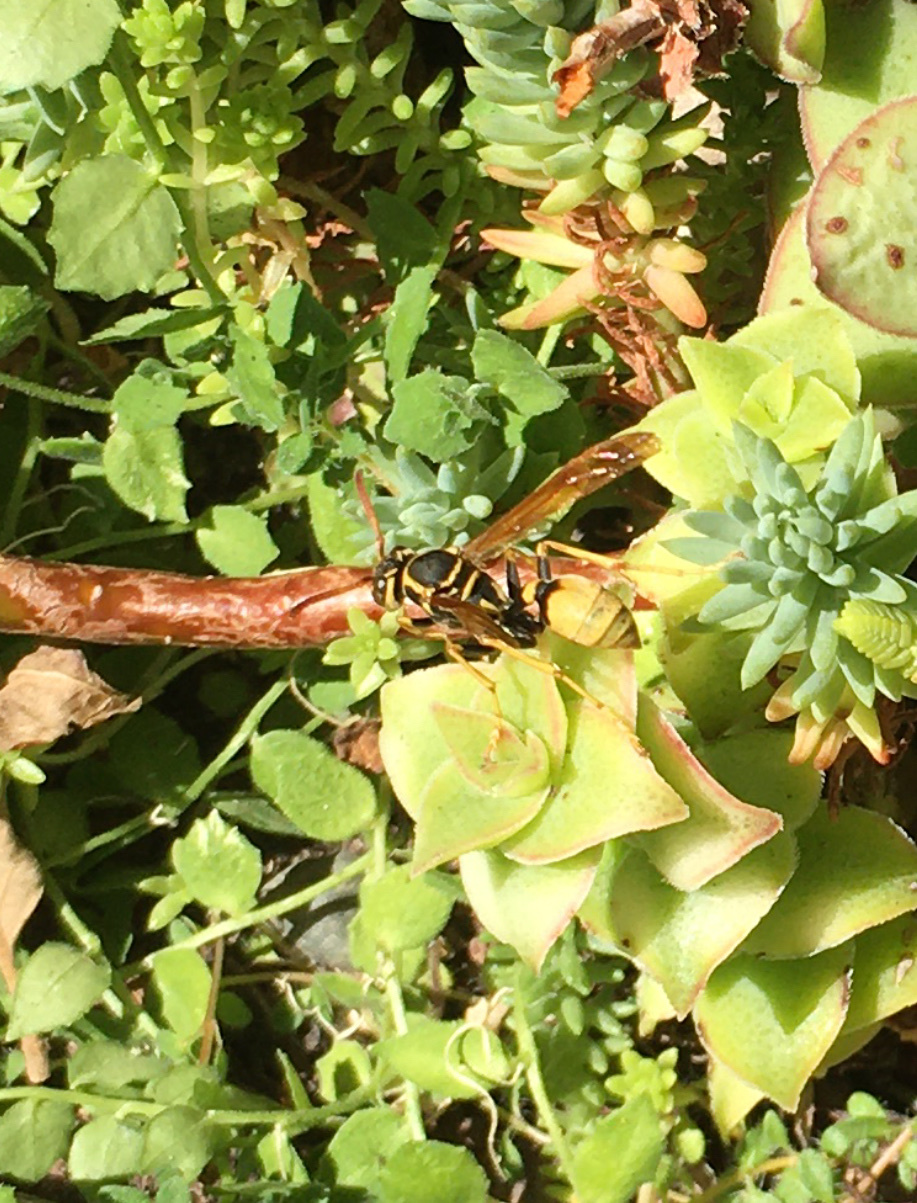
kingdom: Animalia
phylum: Arthropoda
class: Insecta
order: Hymenoptera
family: Vespidae
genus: Mischocyttarus
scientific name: Mischocyttarus flavitarsis
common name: Wasp
